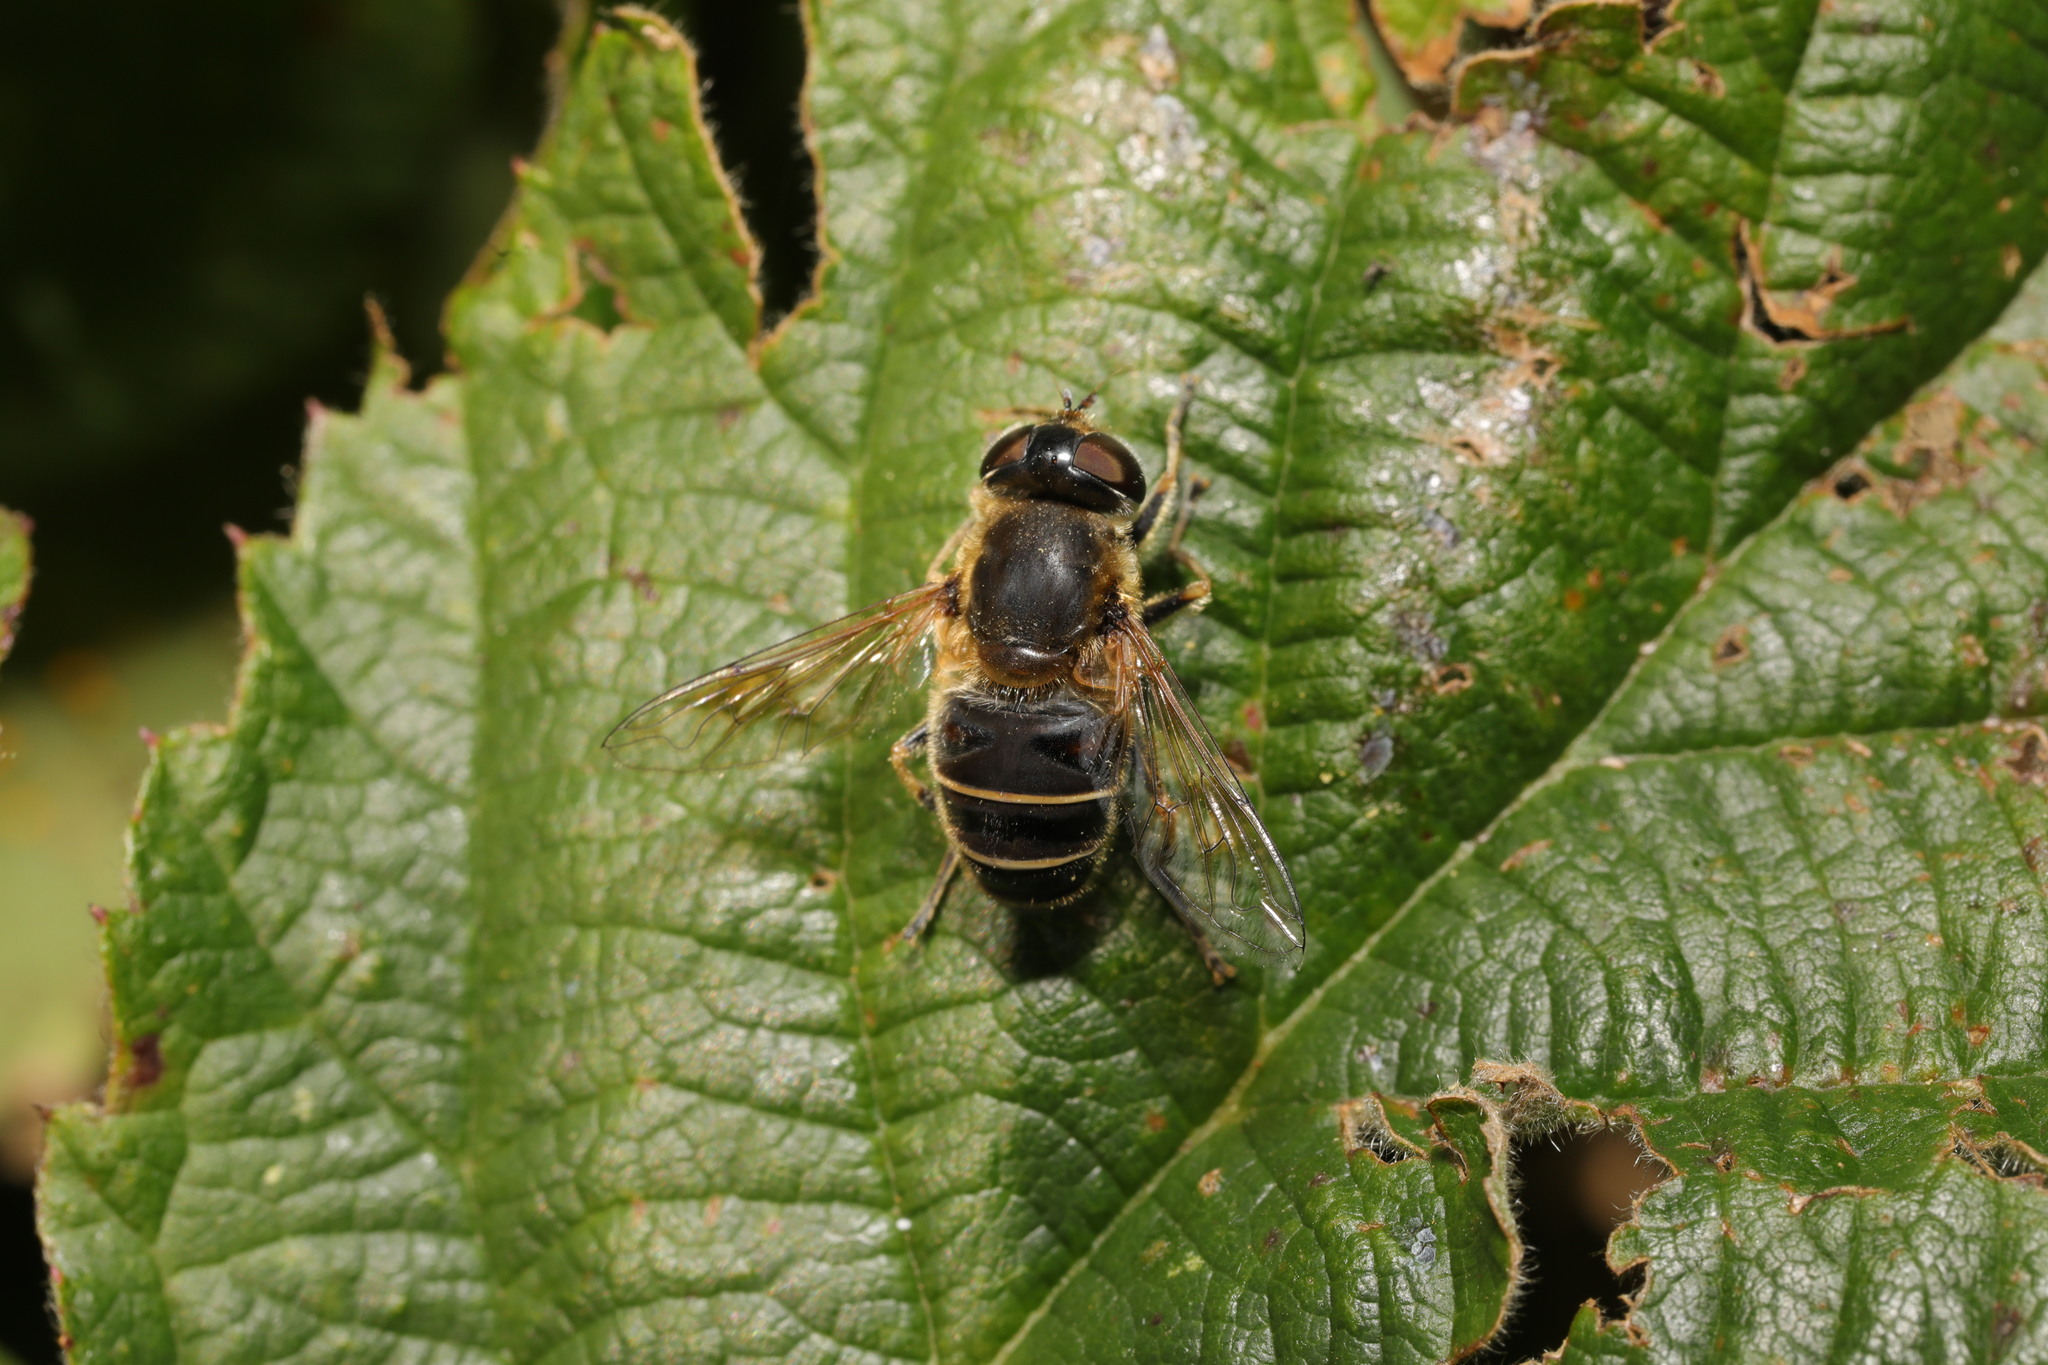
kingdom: Animalia
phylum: Arthropoda
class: Insecta
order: Diptera
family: Syrphidae
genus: Eristalis
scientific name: Eristalis nemorum
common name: Orange-spined drone fly
